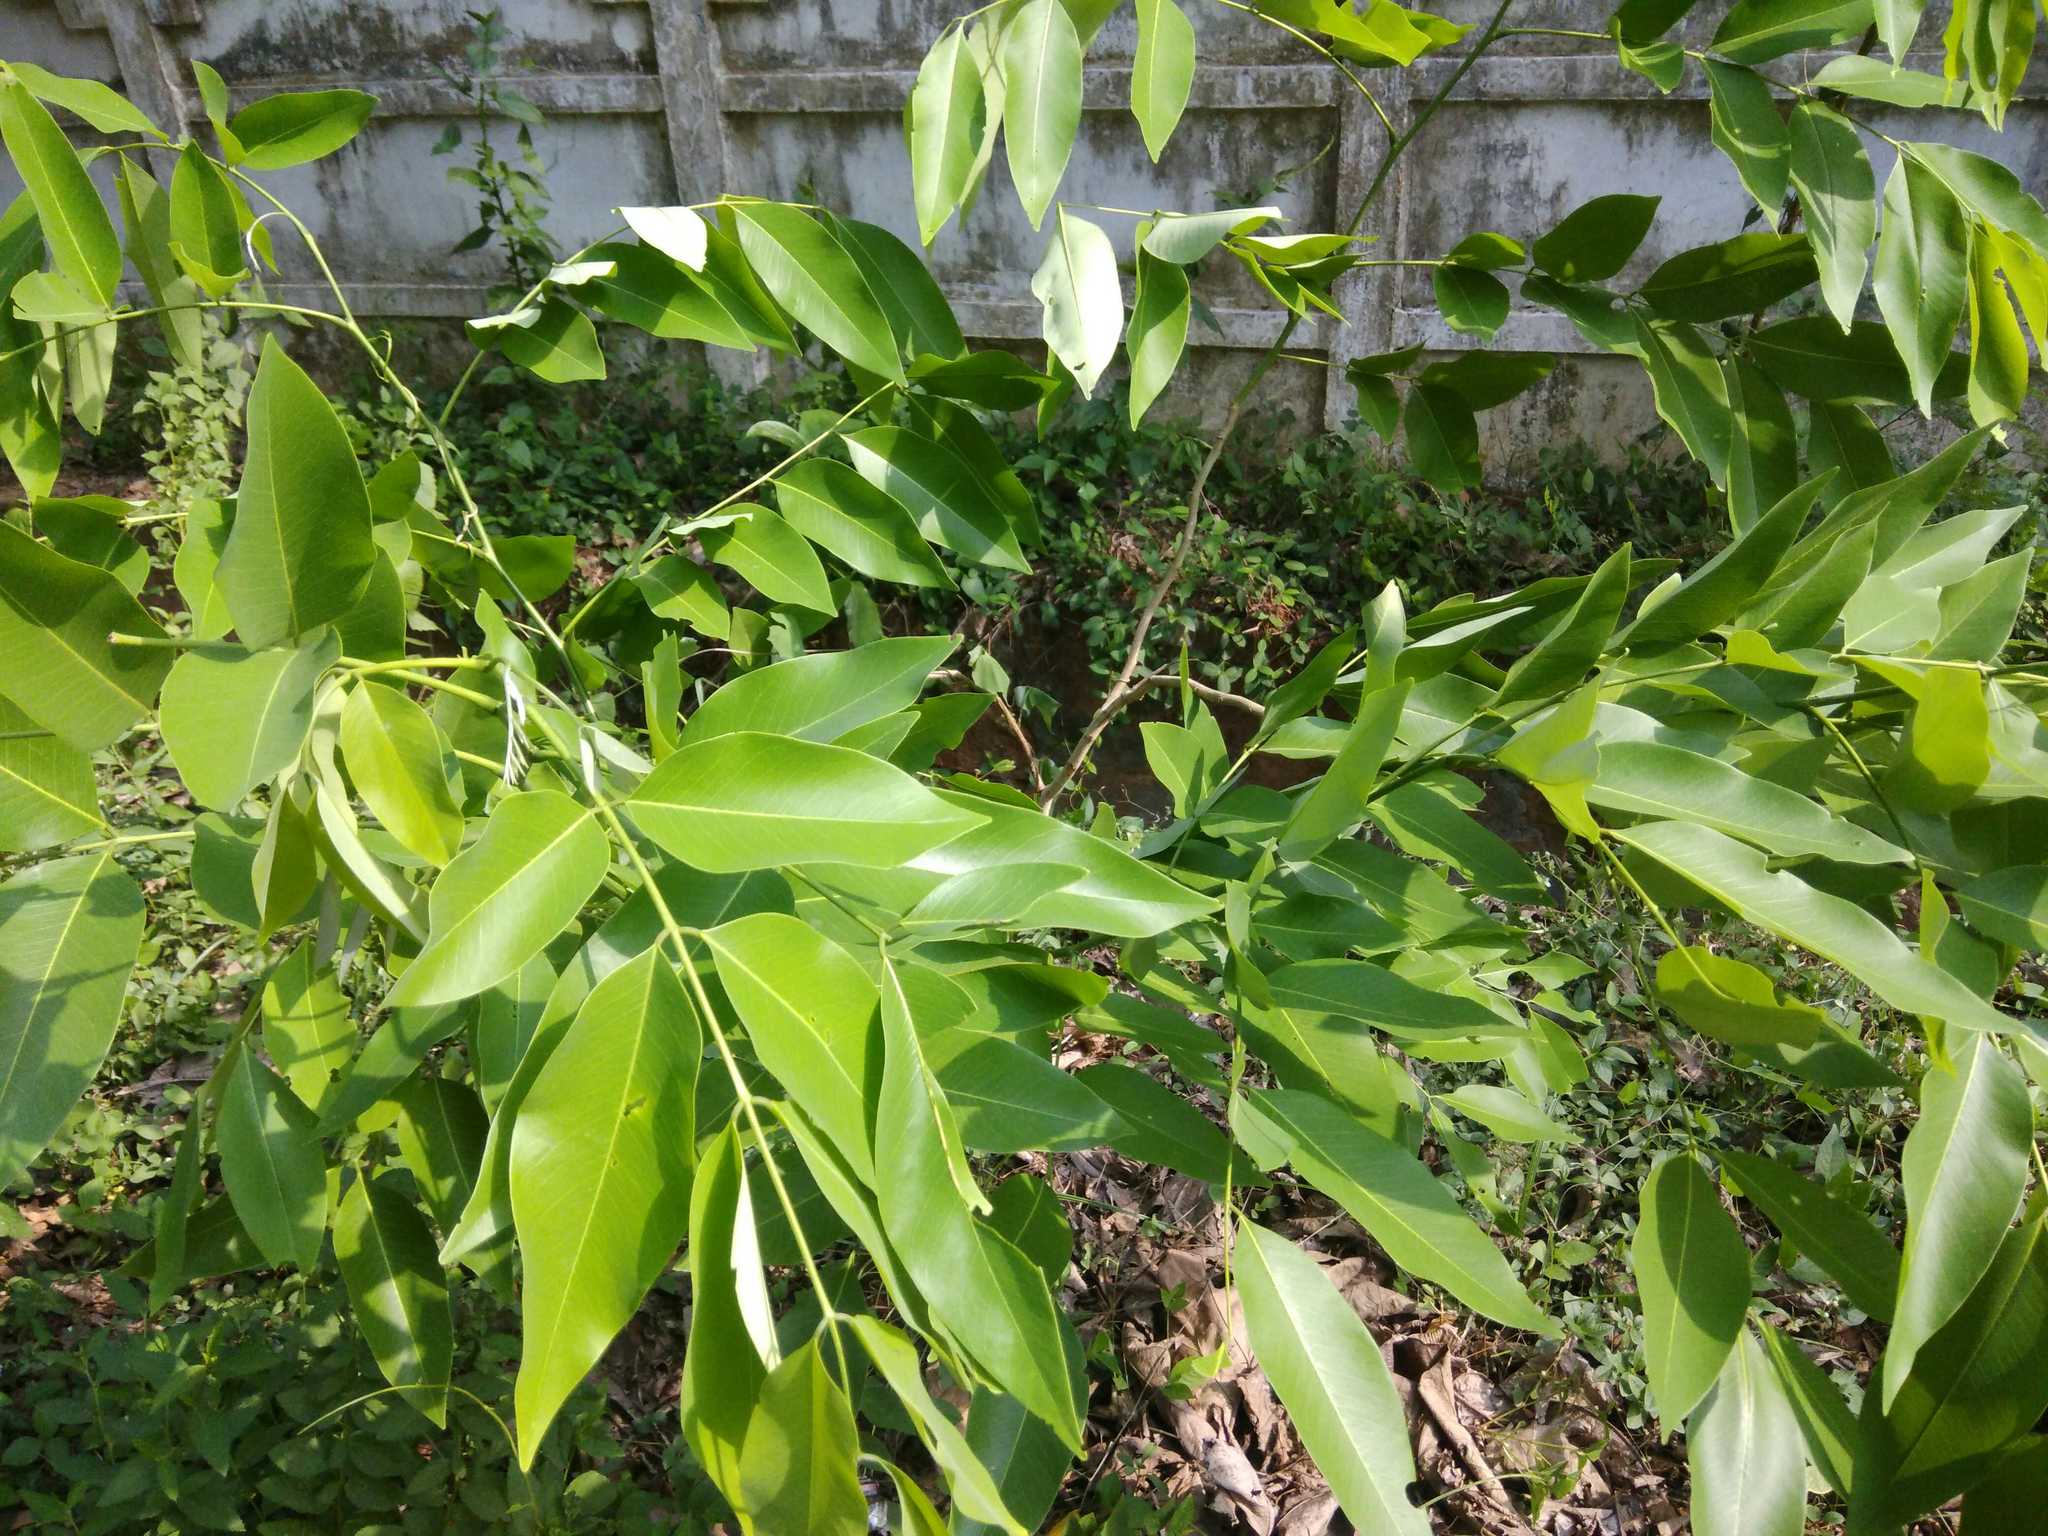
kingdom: Plantae
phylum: Tracheophyta
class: Magnoliopsida
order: Fabales
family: Fabaceae
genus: Cassia
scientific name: Cassia fistula
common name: Golden shower
